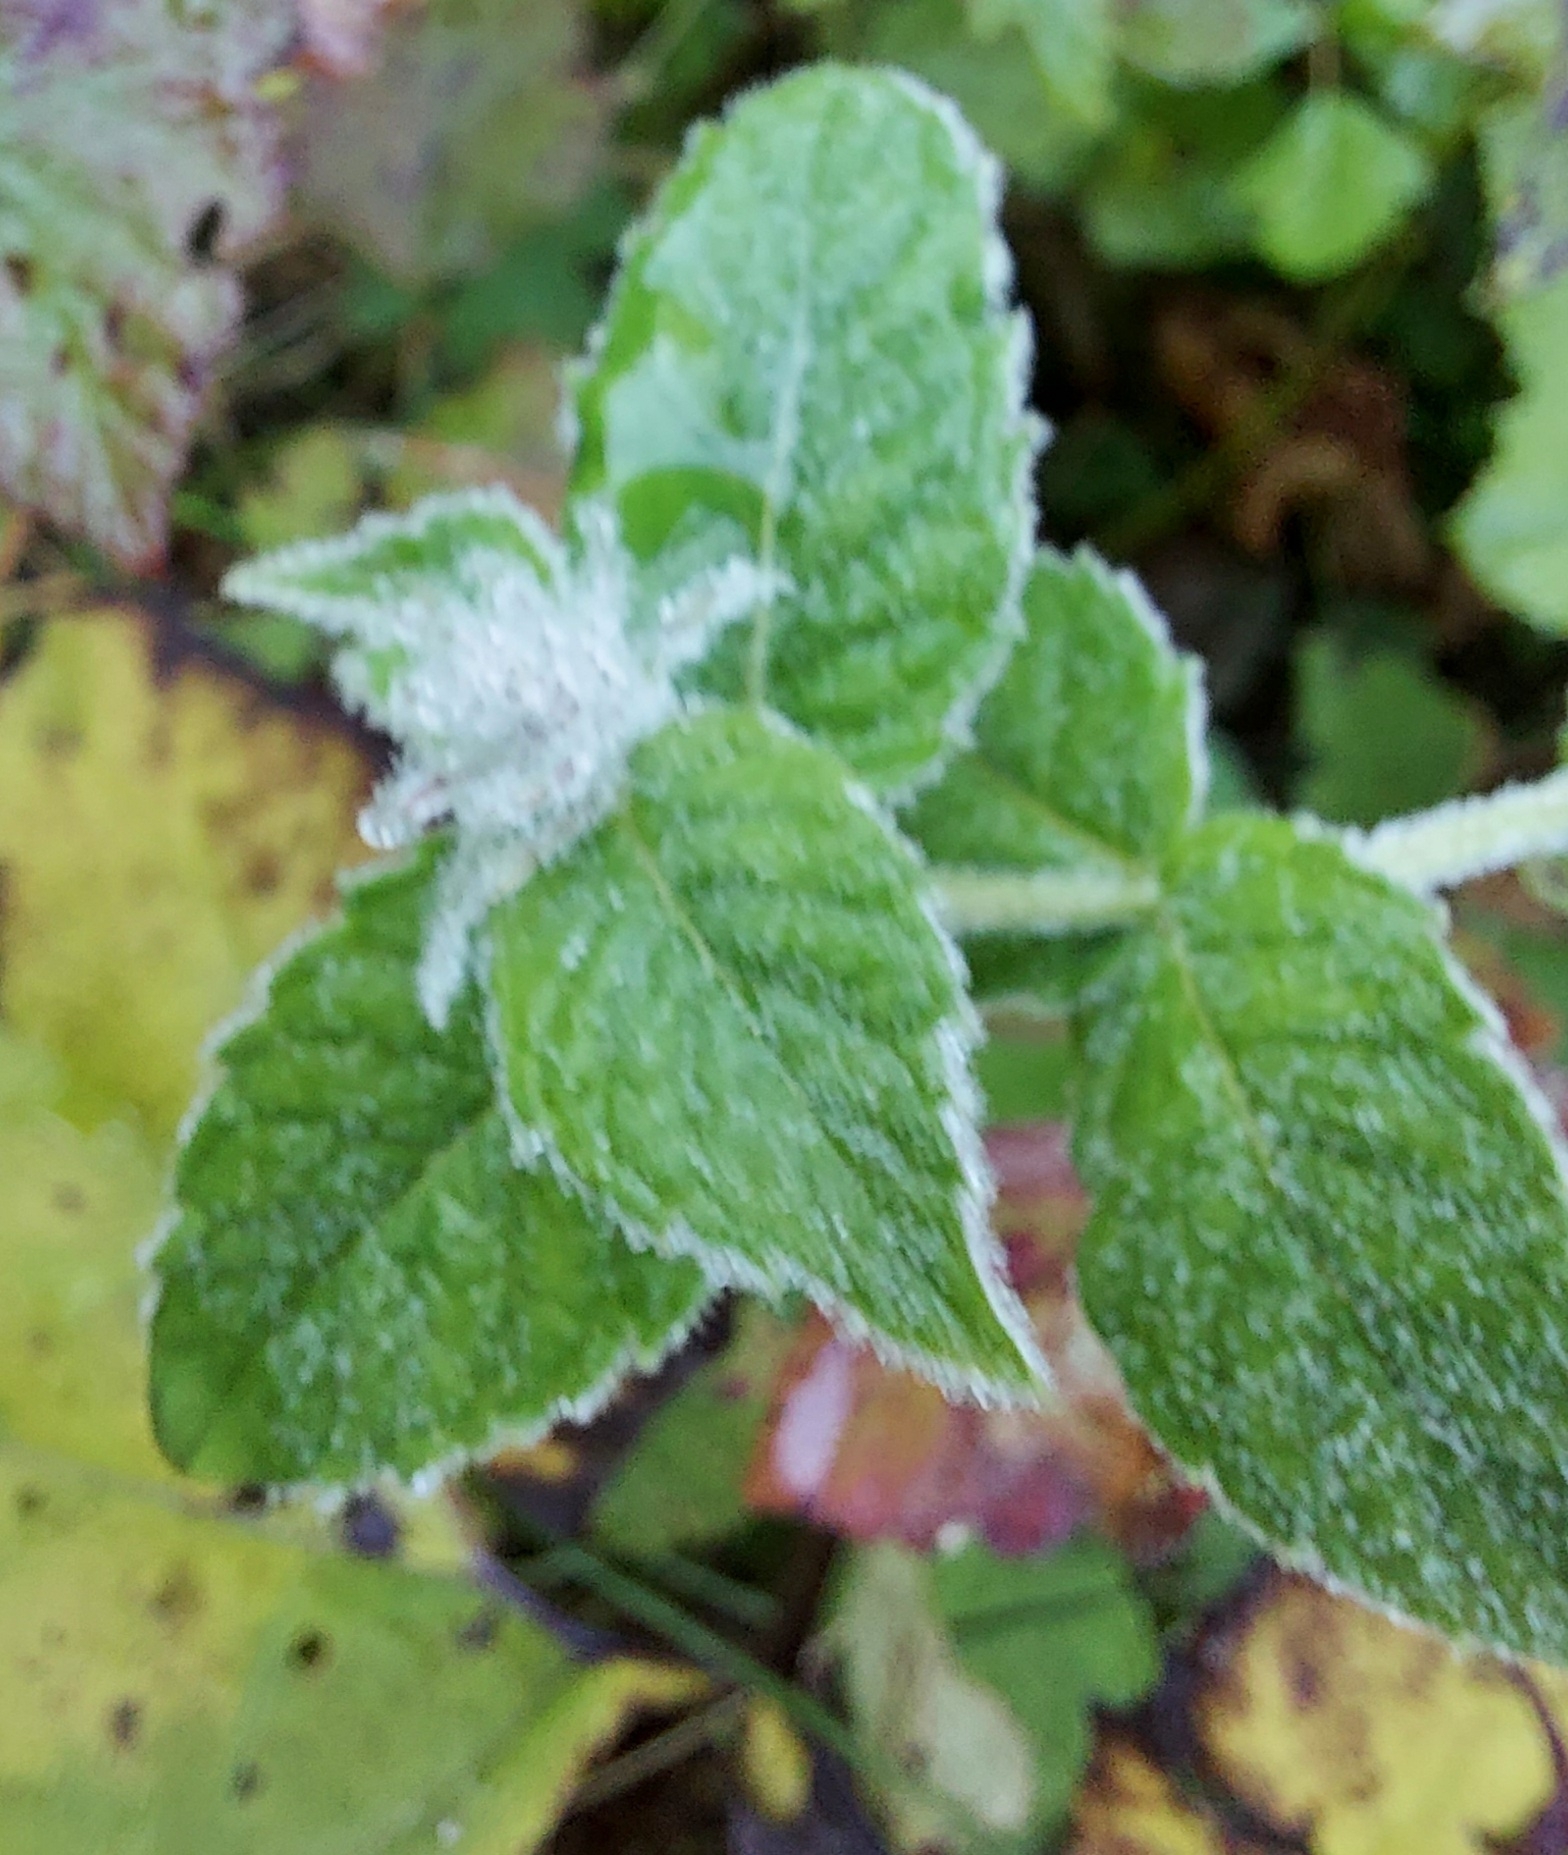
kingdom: Plantae
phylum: Tracheophyta
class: Magnoliopsida
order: Lamiales
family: Lamiaceae
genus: Mentha
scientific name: Mentha aquatica
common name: Water mint
